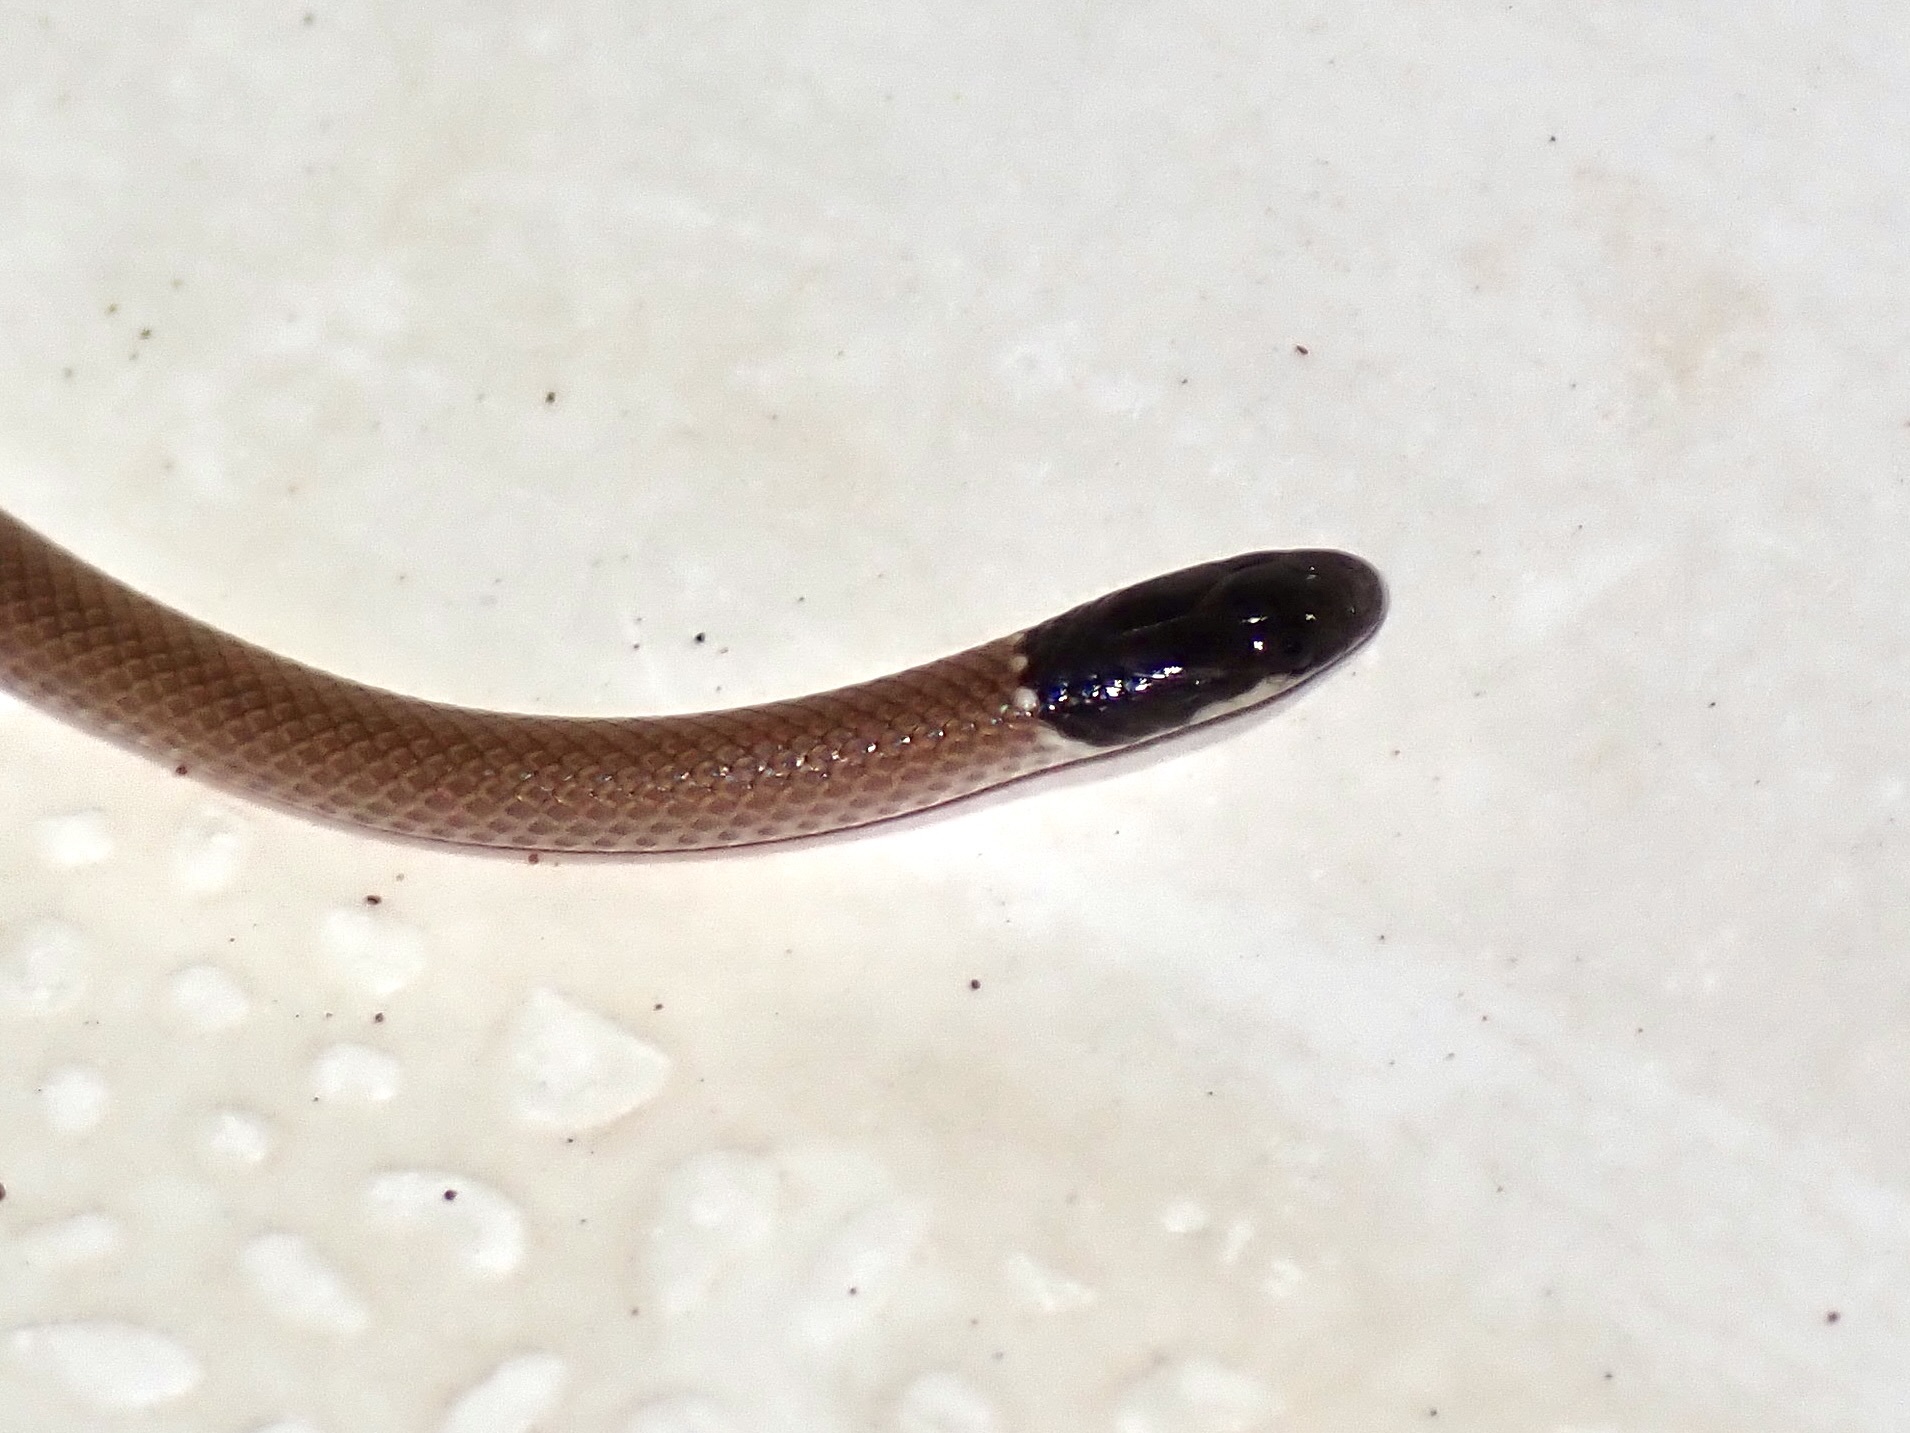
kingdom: Animalia
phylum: Chordata
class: Squamata
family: Colubridae
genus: Tantilla
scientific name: Tantilla yaquia
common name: Yaqui black-headed snake
